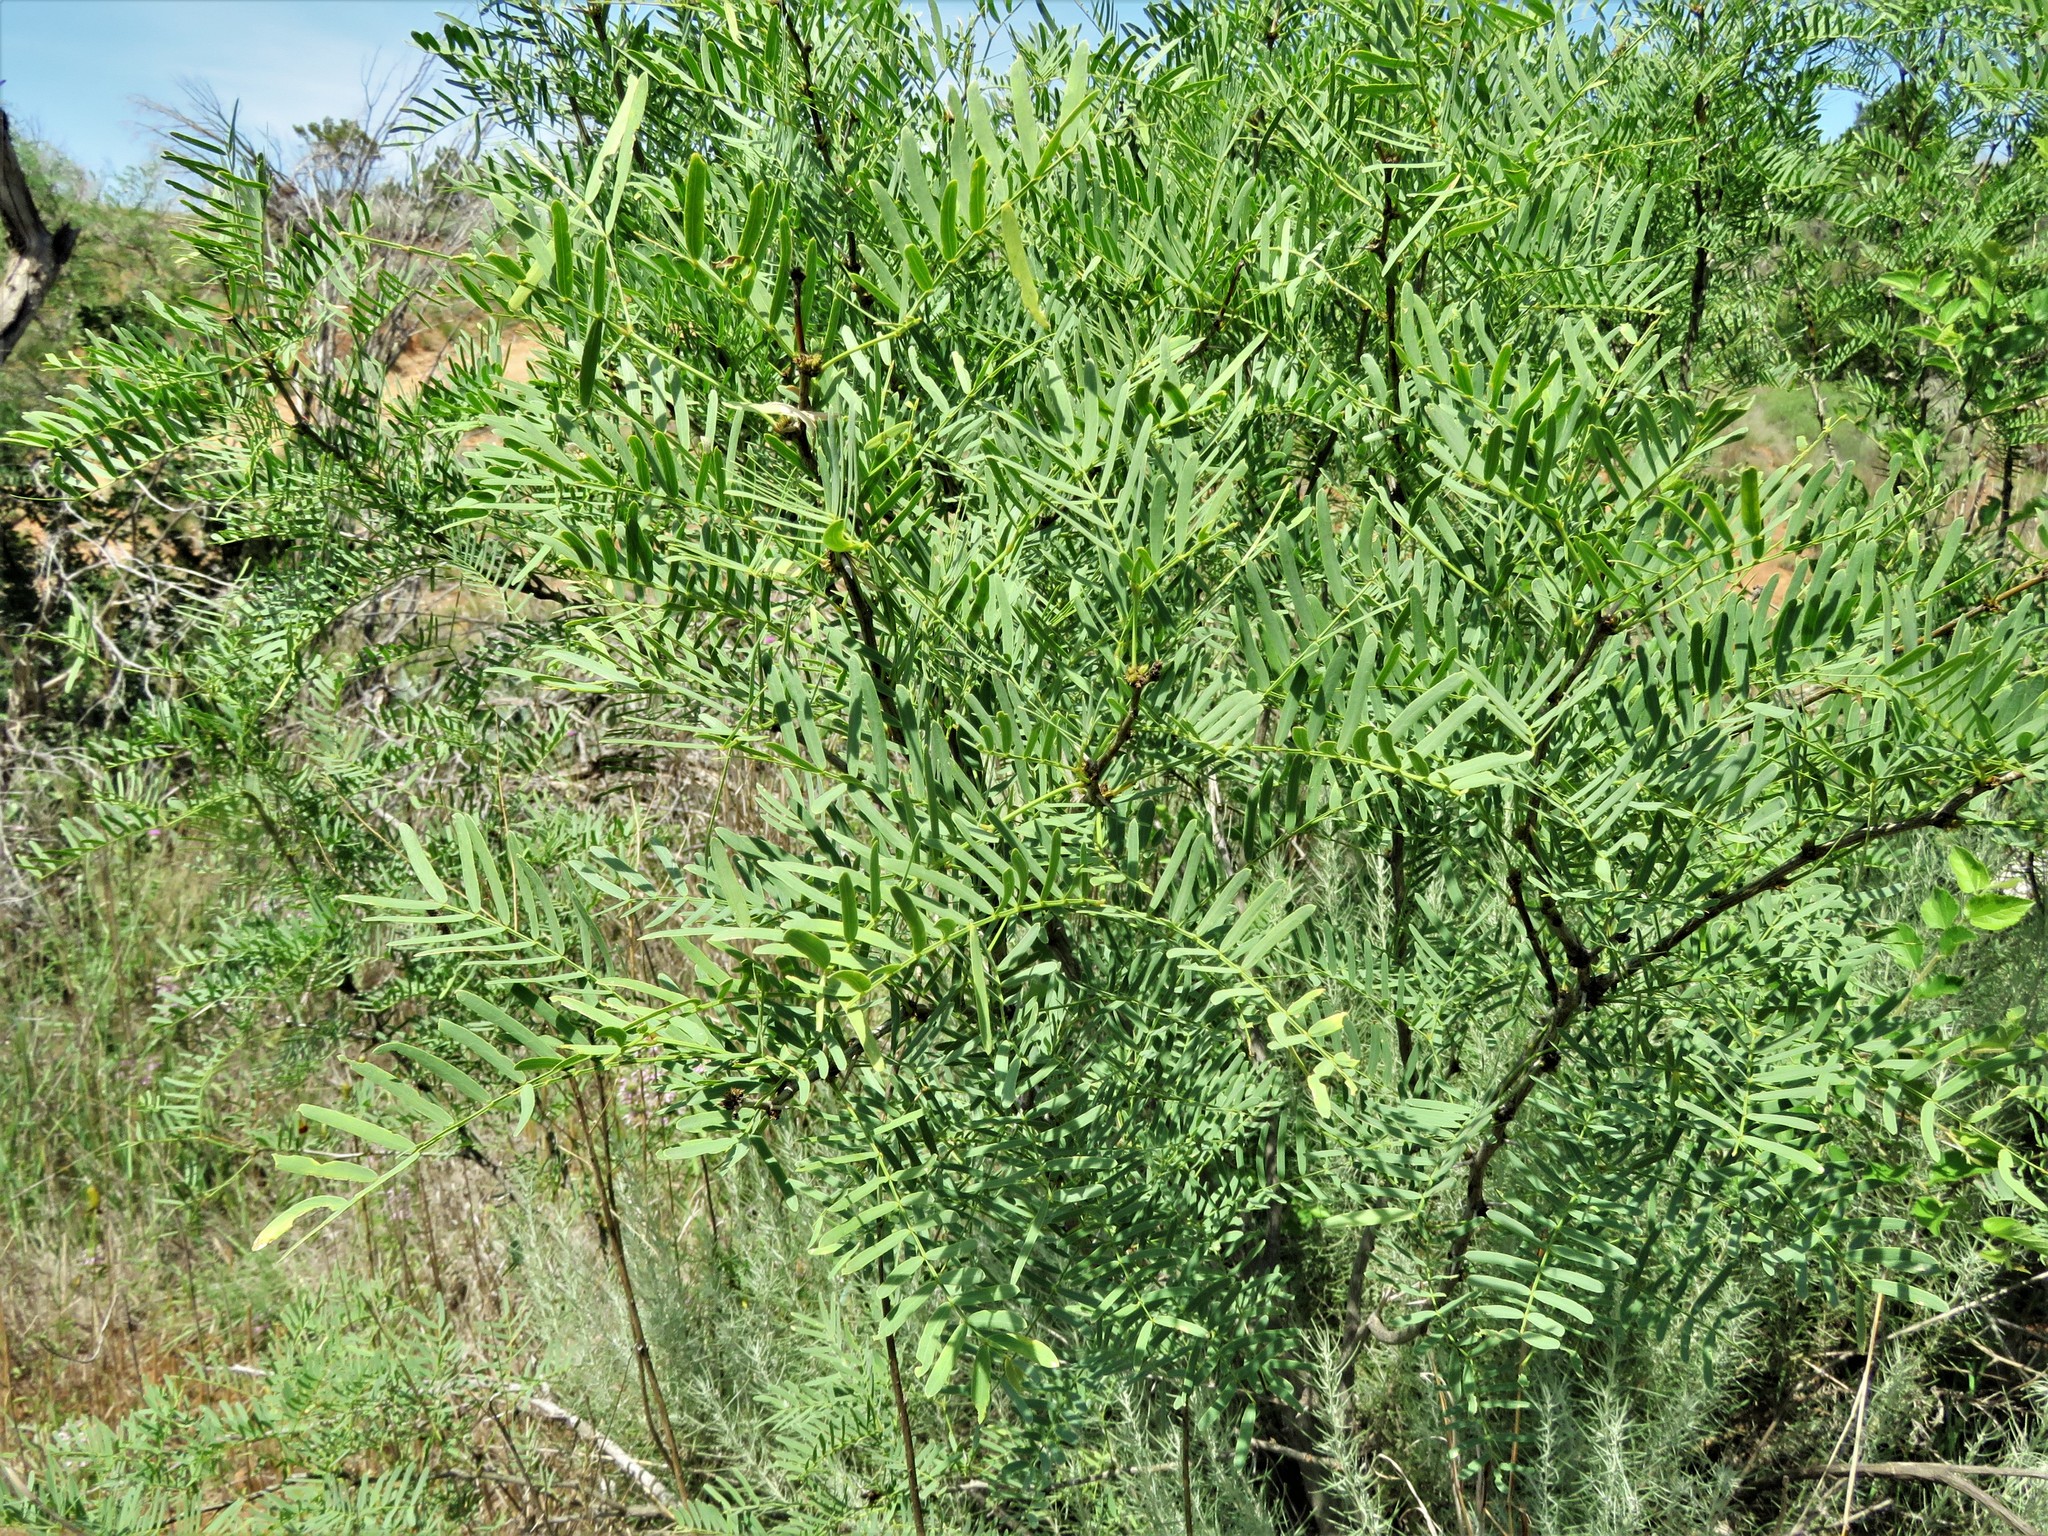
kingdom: Plantae
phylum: Tracheophyta
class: Magnoliopsida
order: Fabales
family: Fabaceae
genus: Prosopis
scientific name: Prosopis glandulosa
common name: Honey mesquite
